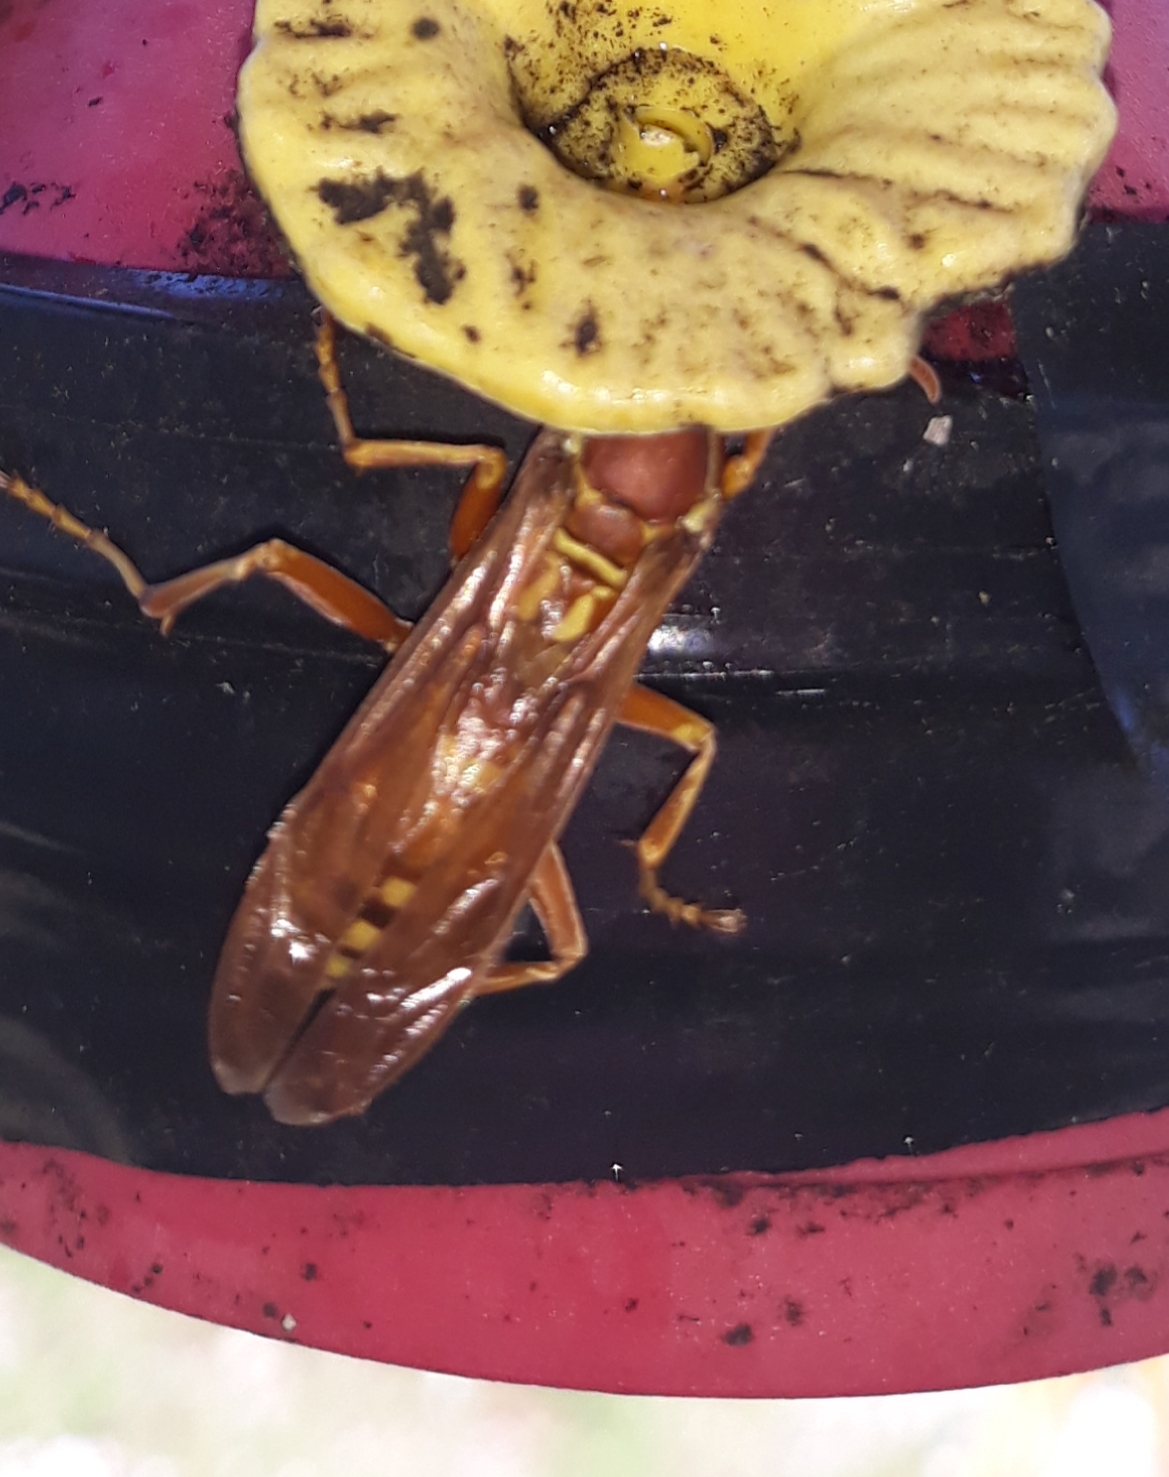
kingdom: Animalia
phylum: Arthropoda
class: Insecta
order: Hymenoptera
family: Eumenidae
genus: Polistes
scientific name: Polistes apachus
